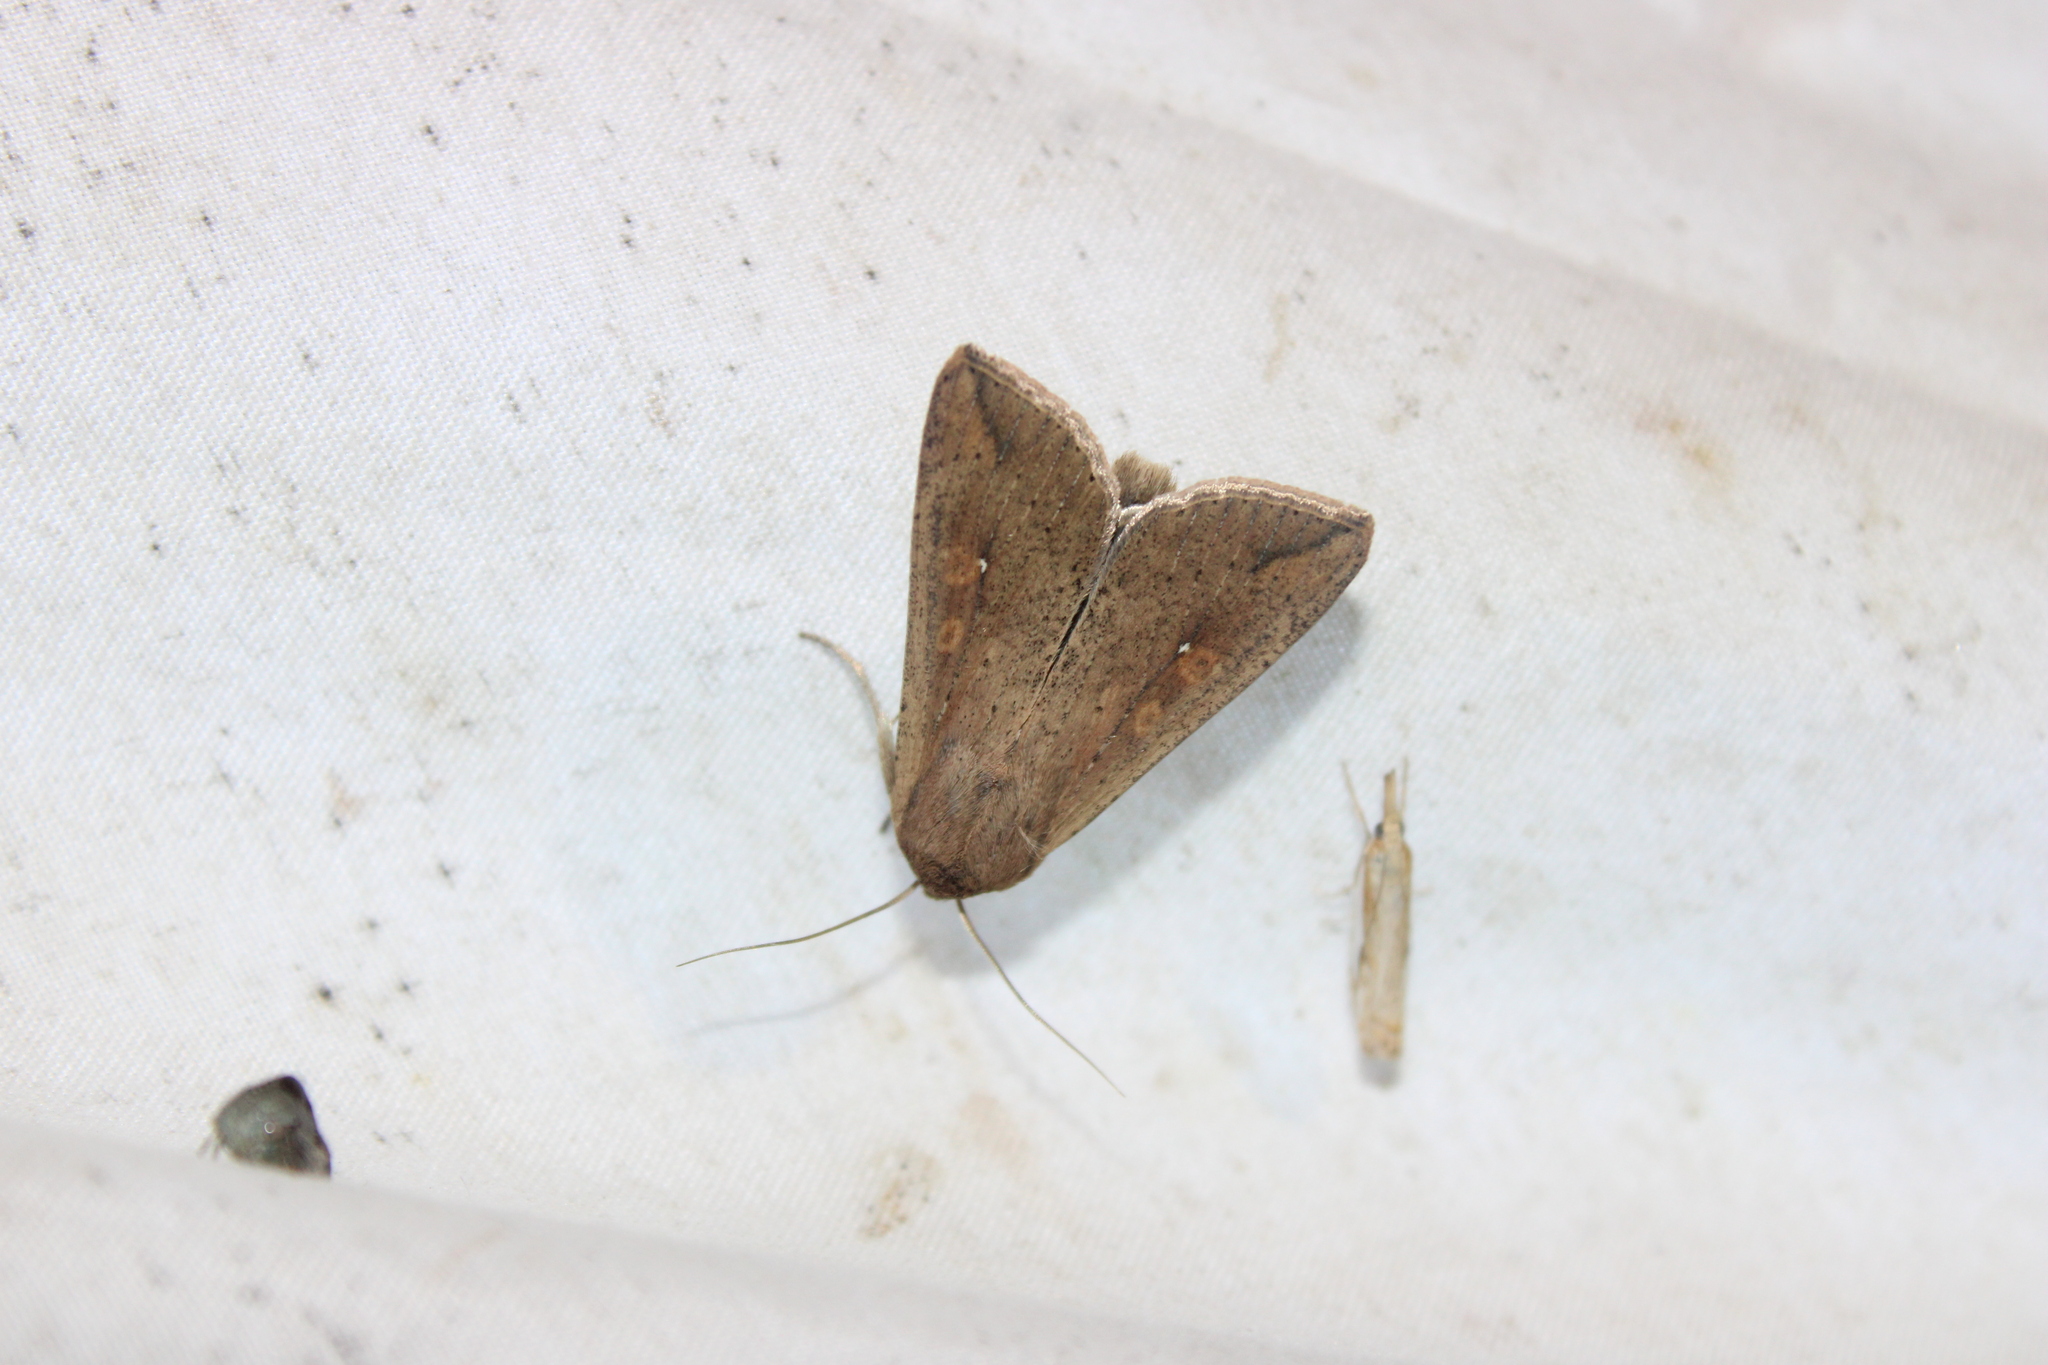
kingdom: Animalia
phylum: Arthropoda
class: Insecta
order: Lepidoptera
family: Noctuidae
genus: Mythimna
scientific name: Mythimna unipuncta
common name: White-speck
